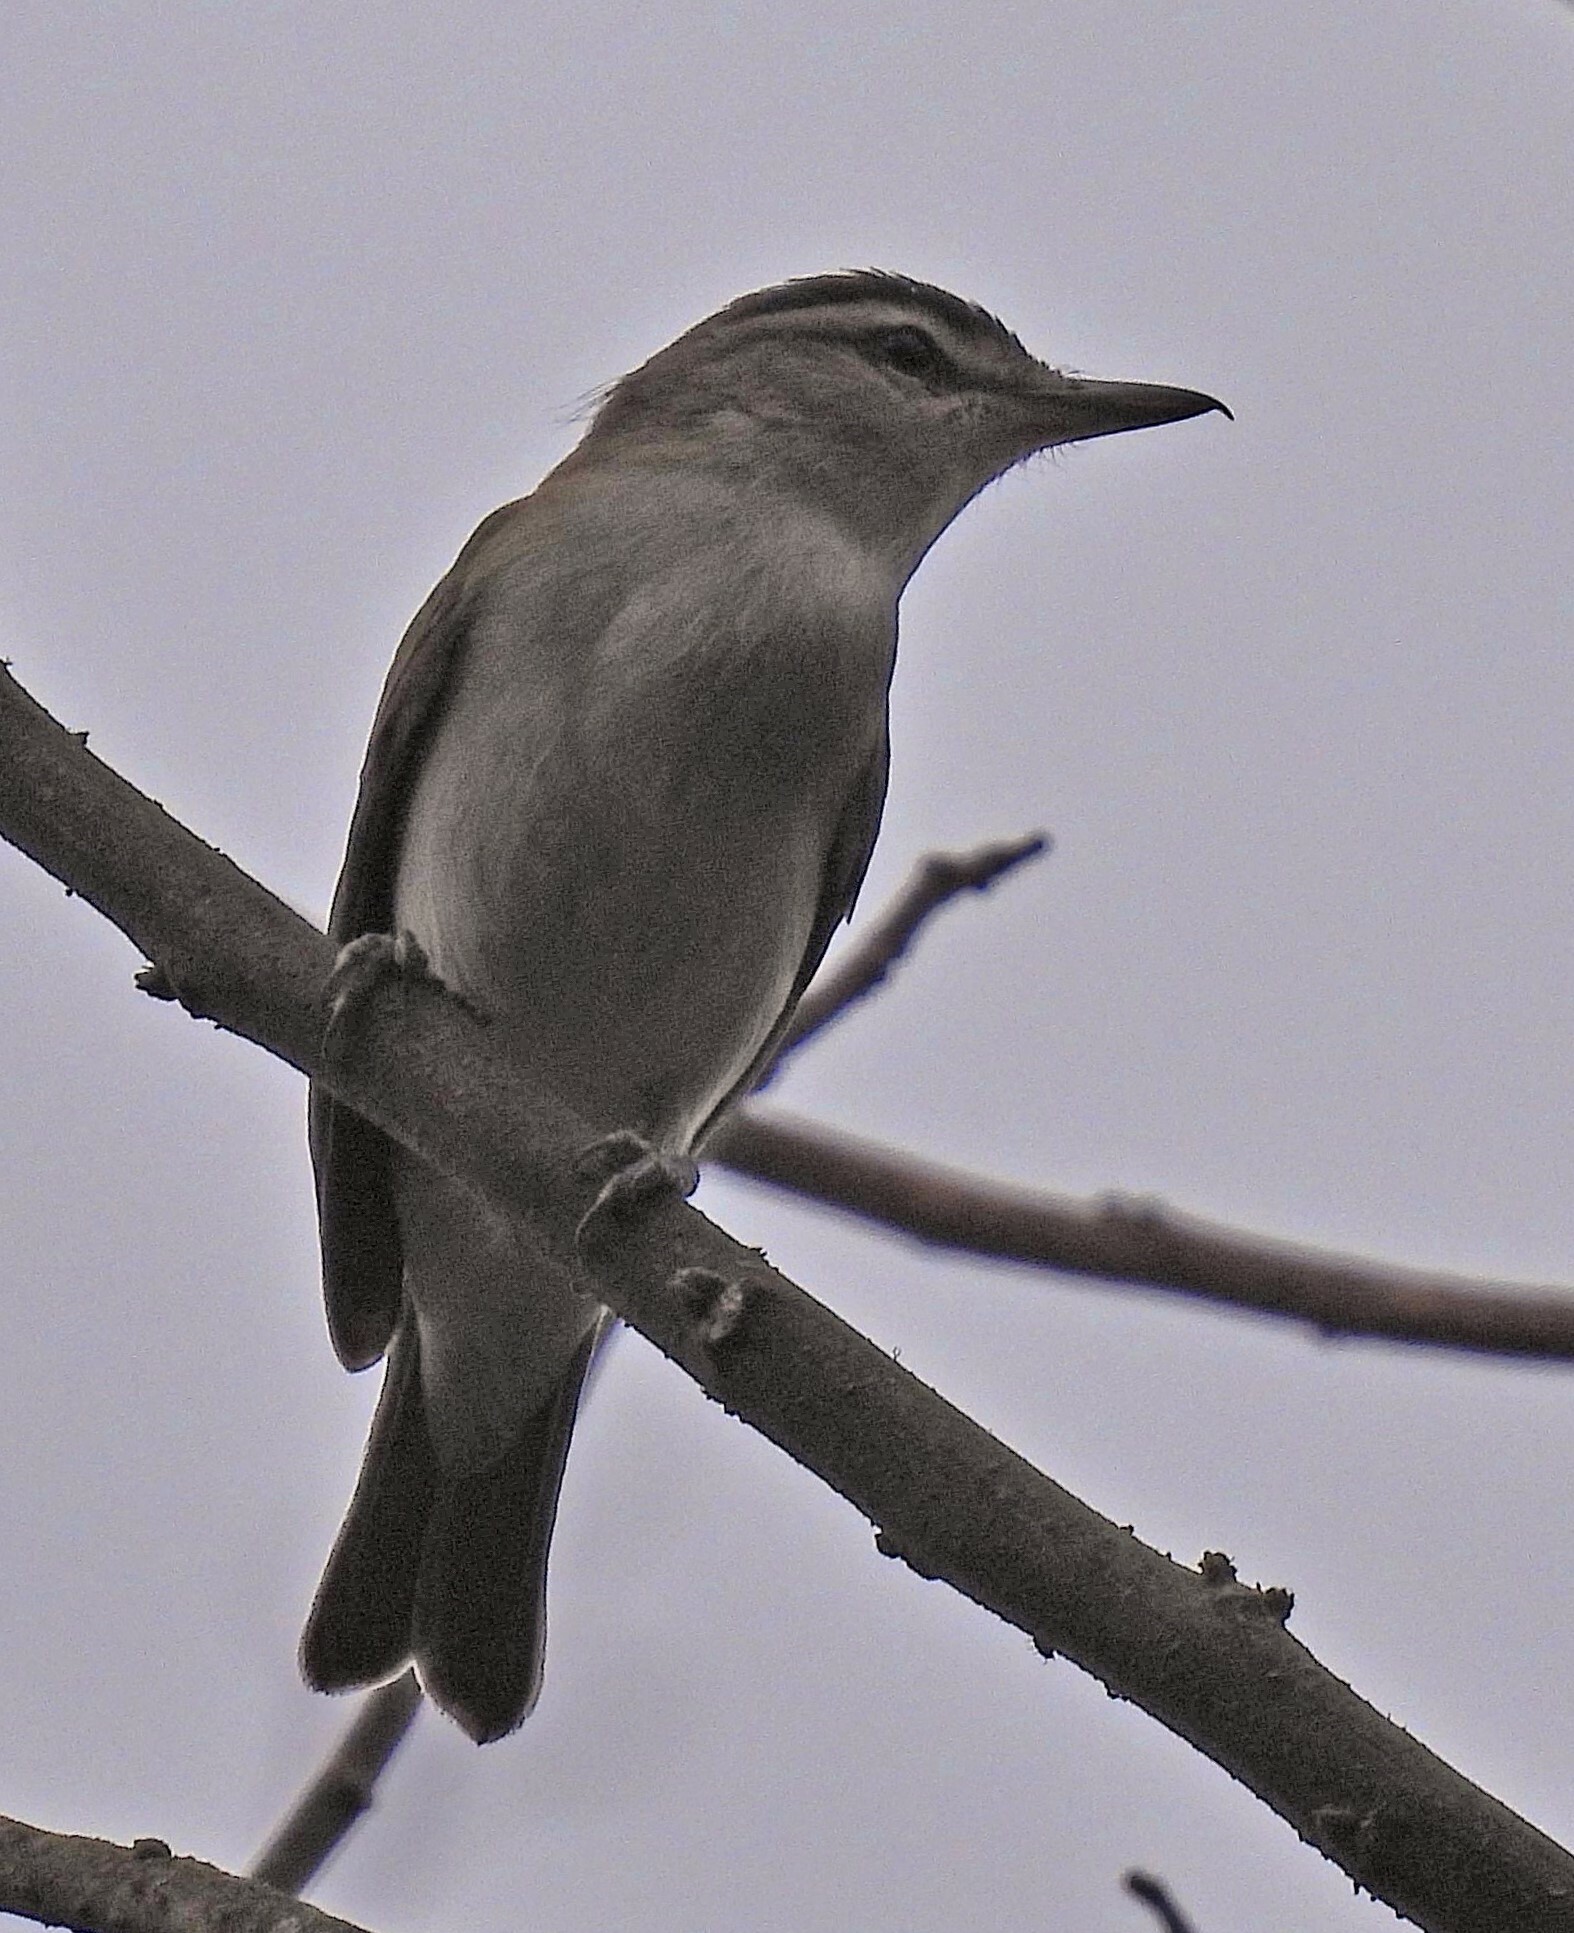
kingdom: Animalia
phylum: Chordata
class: Aves
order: Passeriformes
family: Vireonidae
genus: Vireo
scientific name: Vireo olivaceus
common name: Red-eyed vireo
